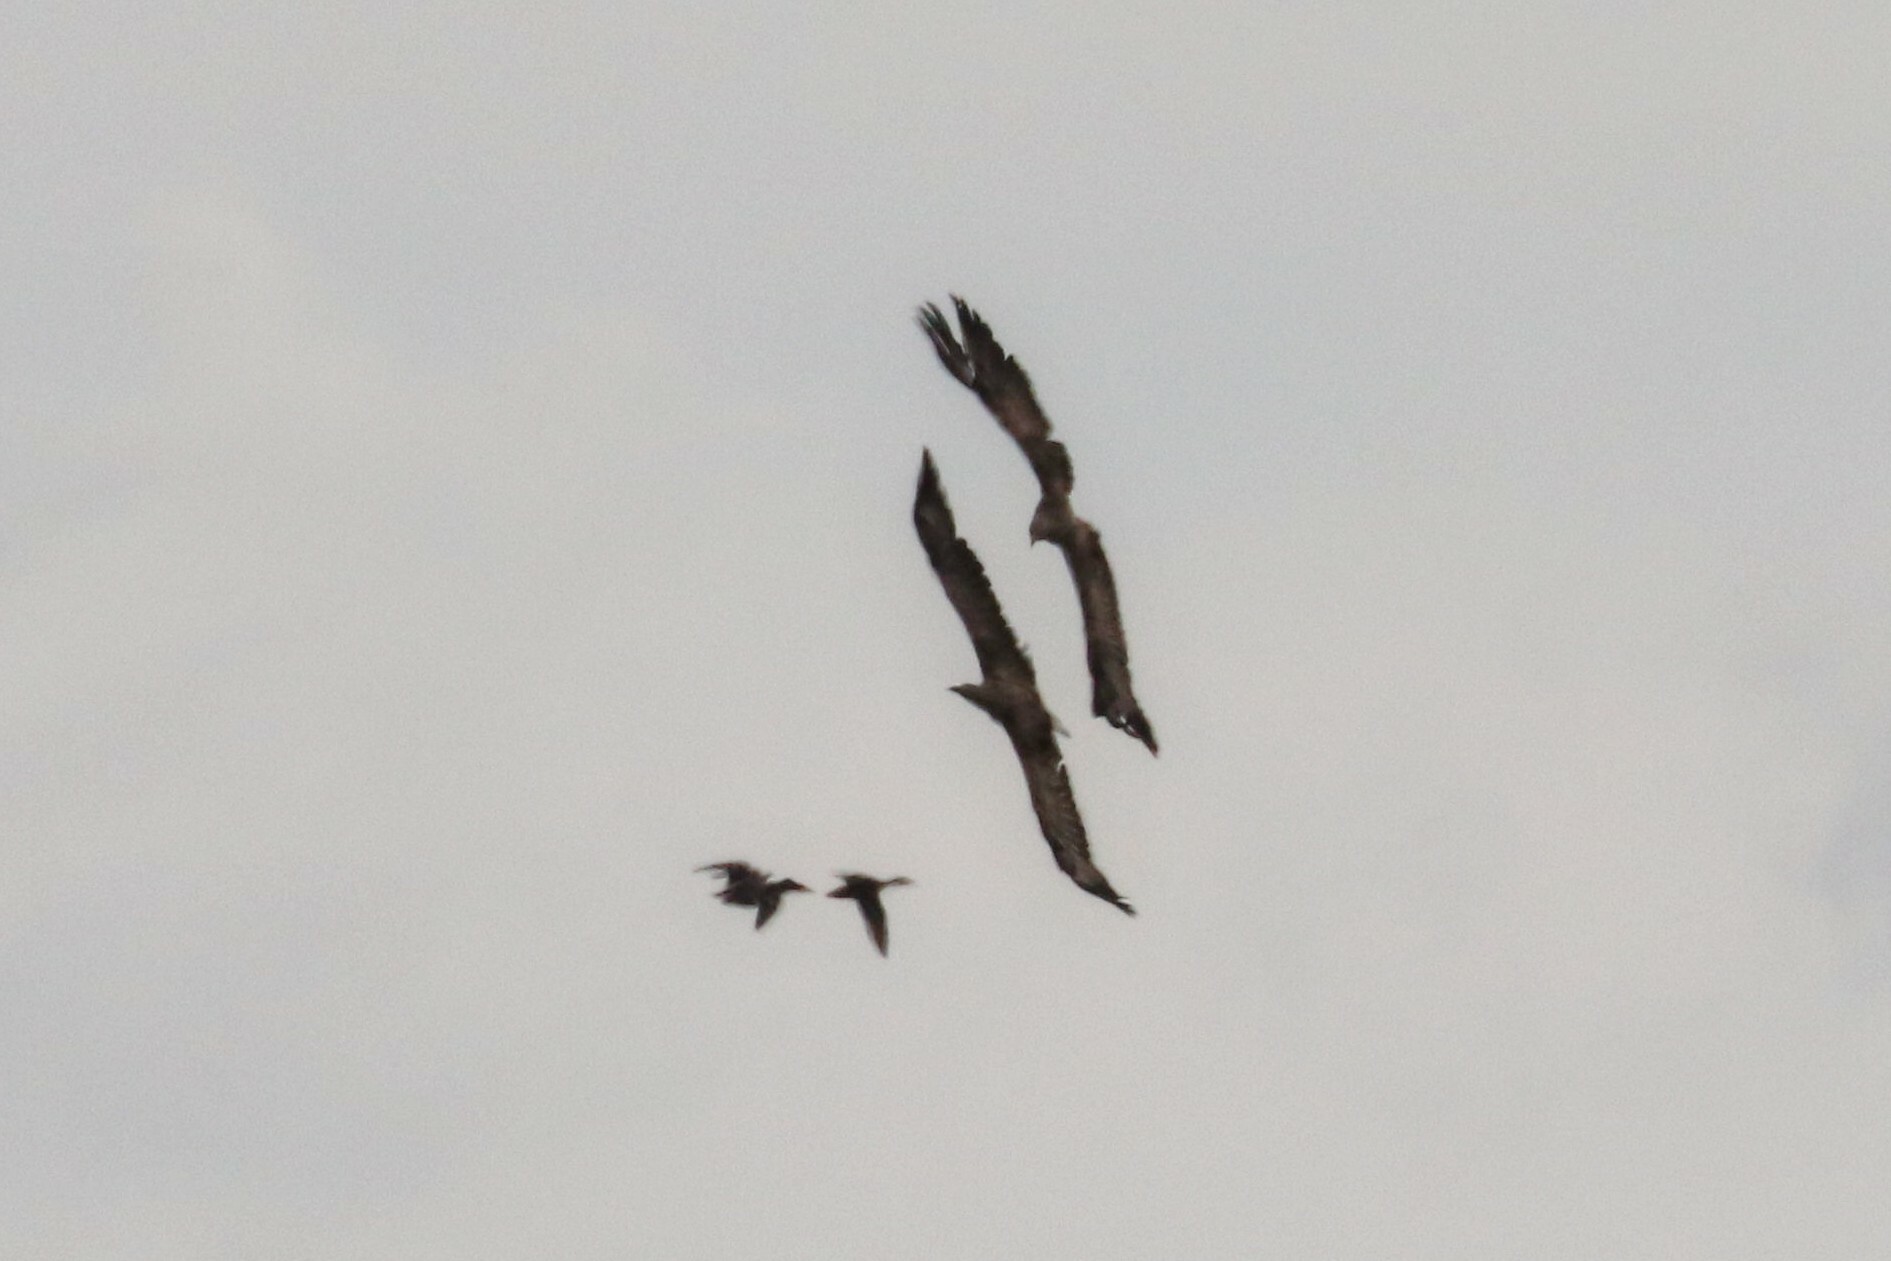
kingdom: Animalia
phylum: Chordata
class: Aves
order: Accipitriformes
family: Accipitridae
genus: Haliaeetus
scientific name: Haliaeetus albicilla
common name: White-tailed eagle
